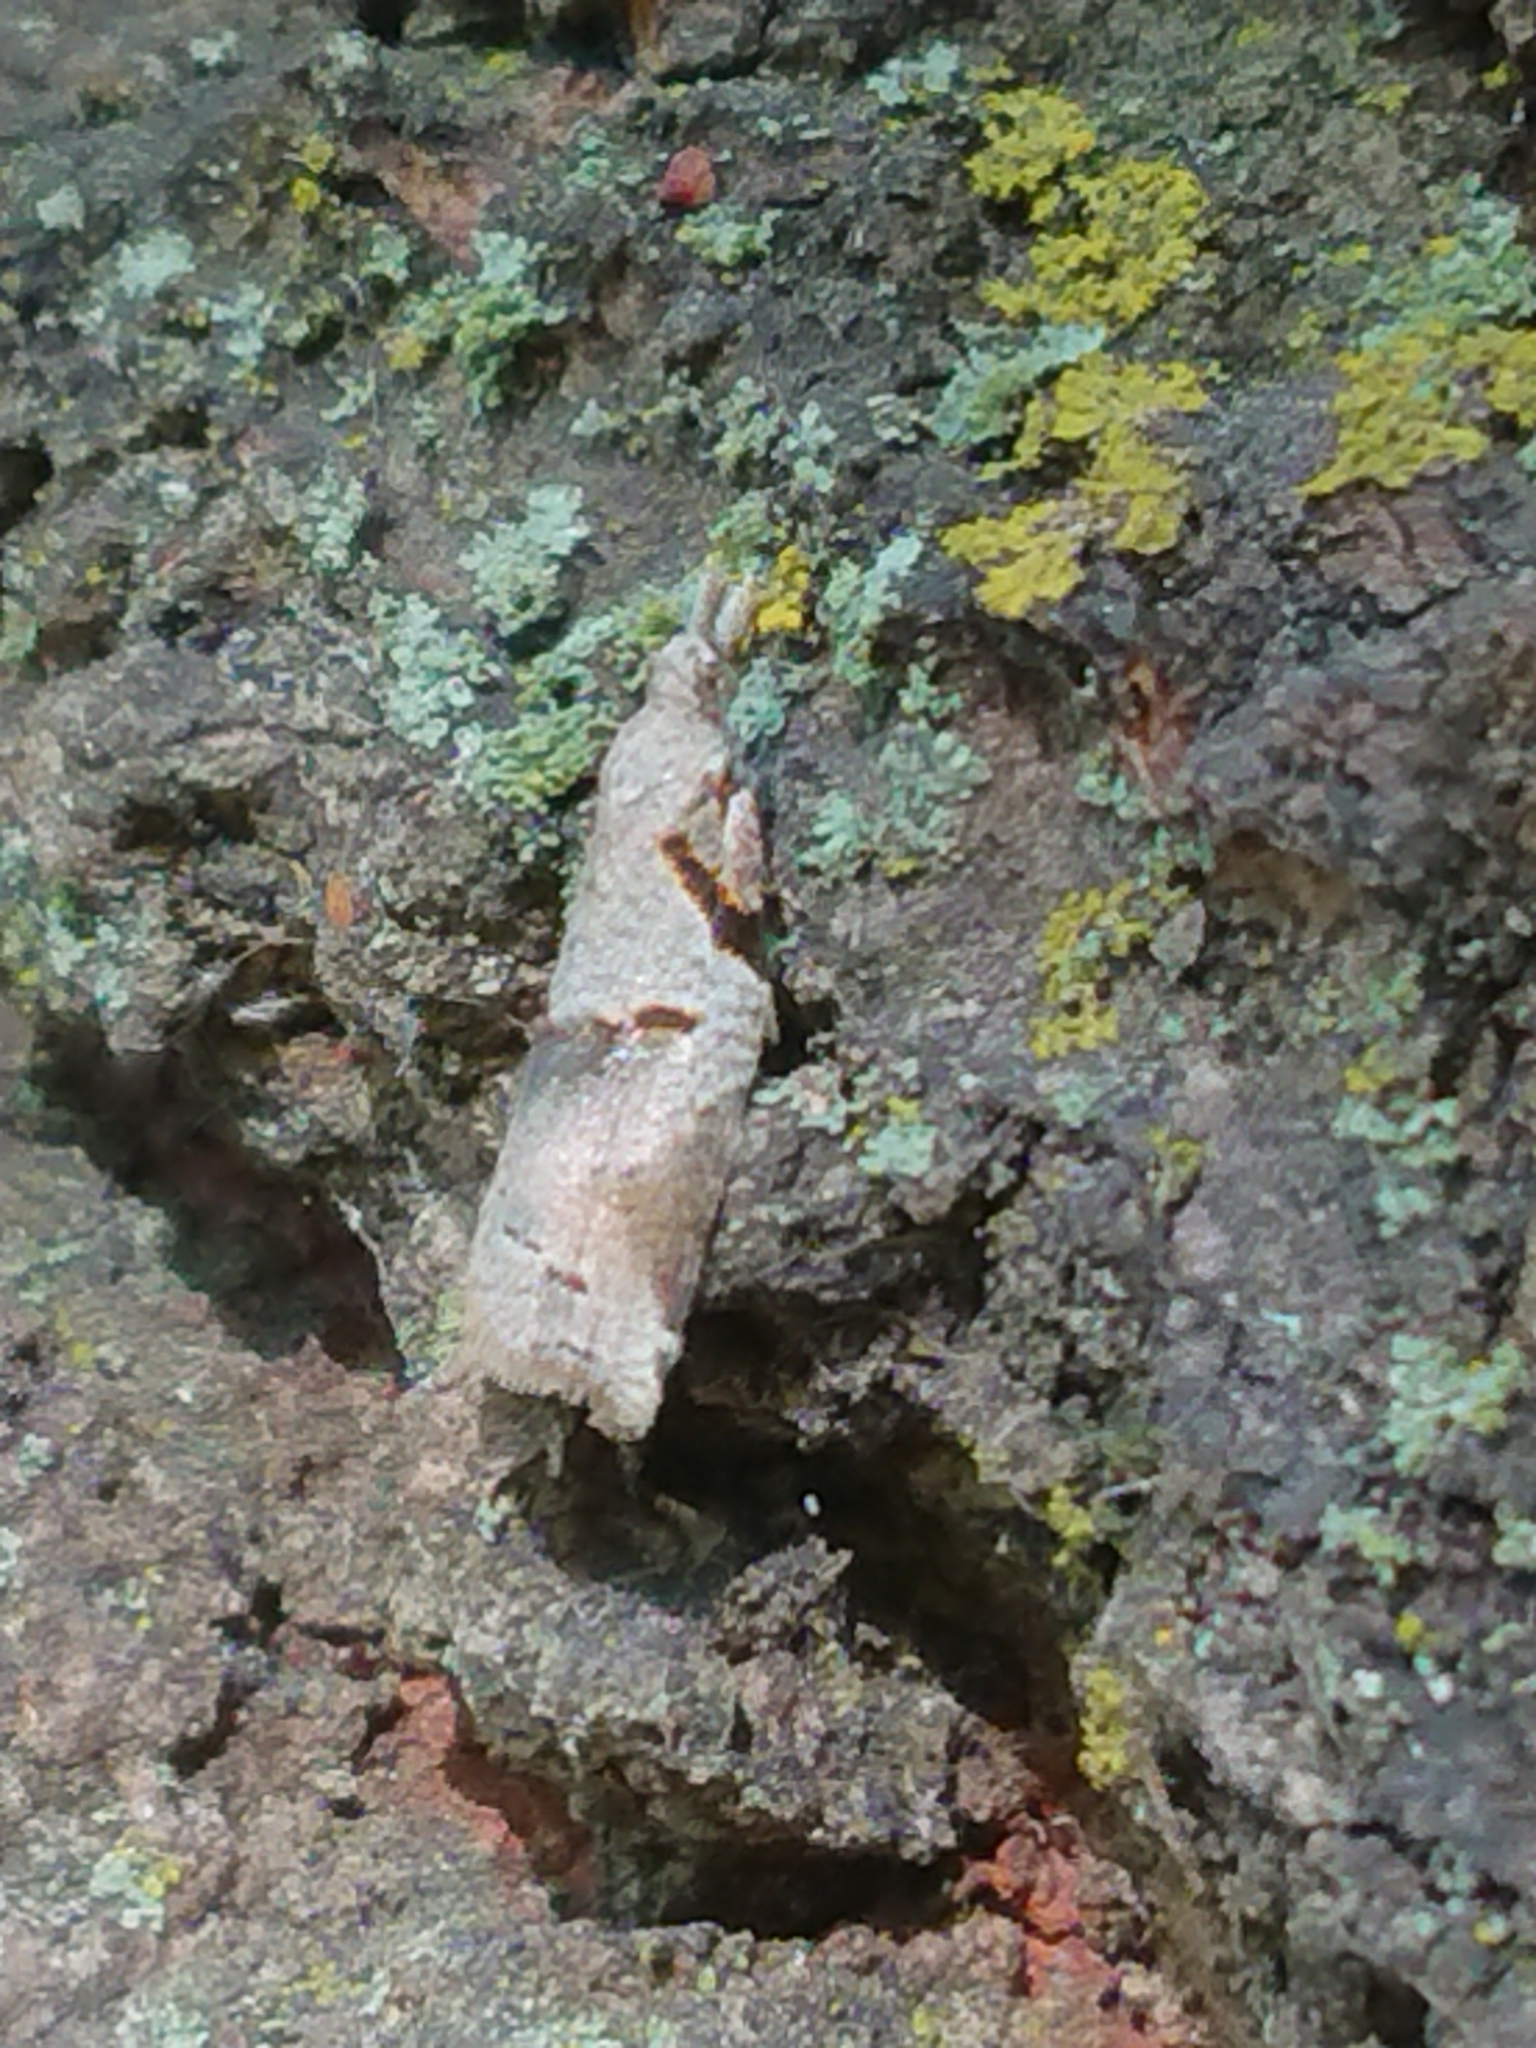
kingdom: Animalia
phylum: Arthropoda
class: Insecta
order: Lepidoptera
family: Tortricidae
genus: Harmologa
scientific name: Harmologa amplexana
